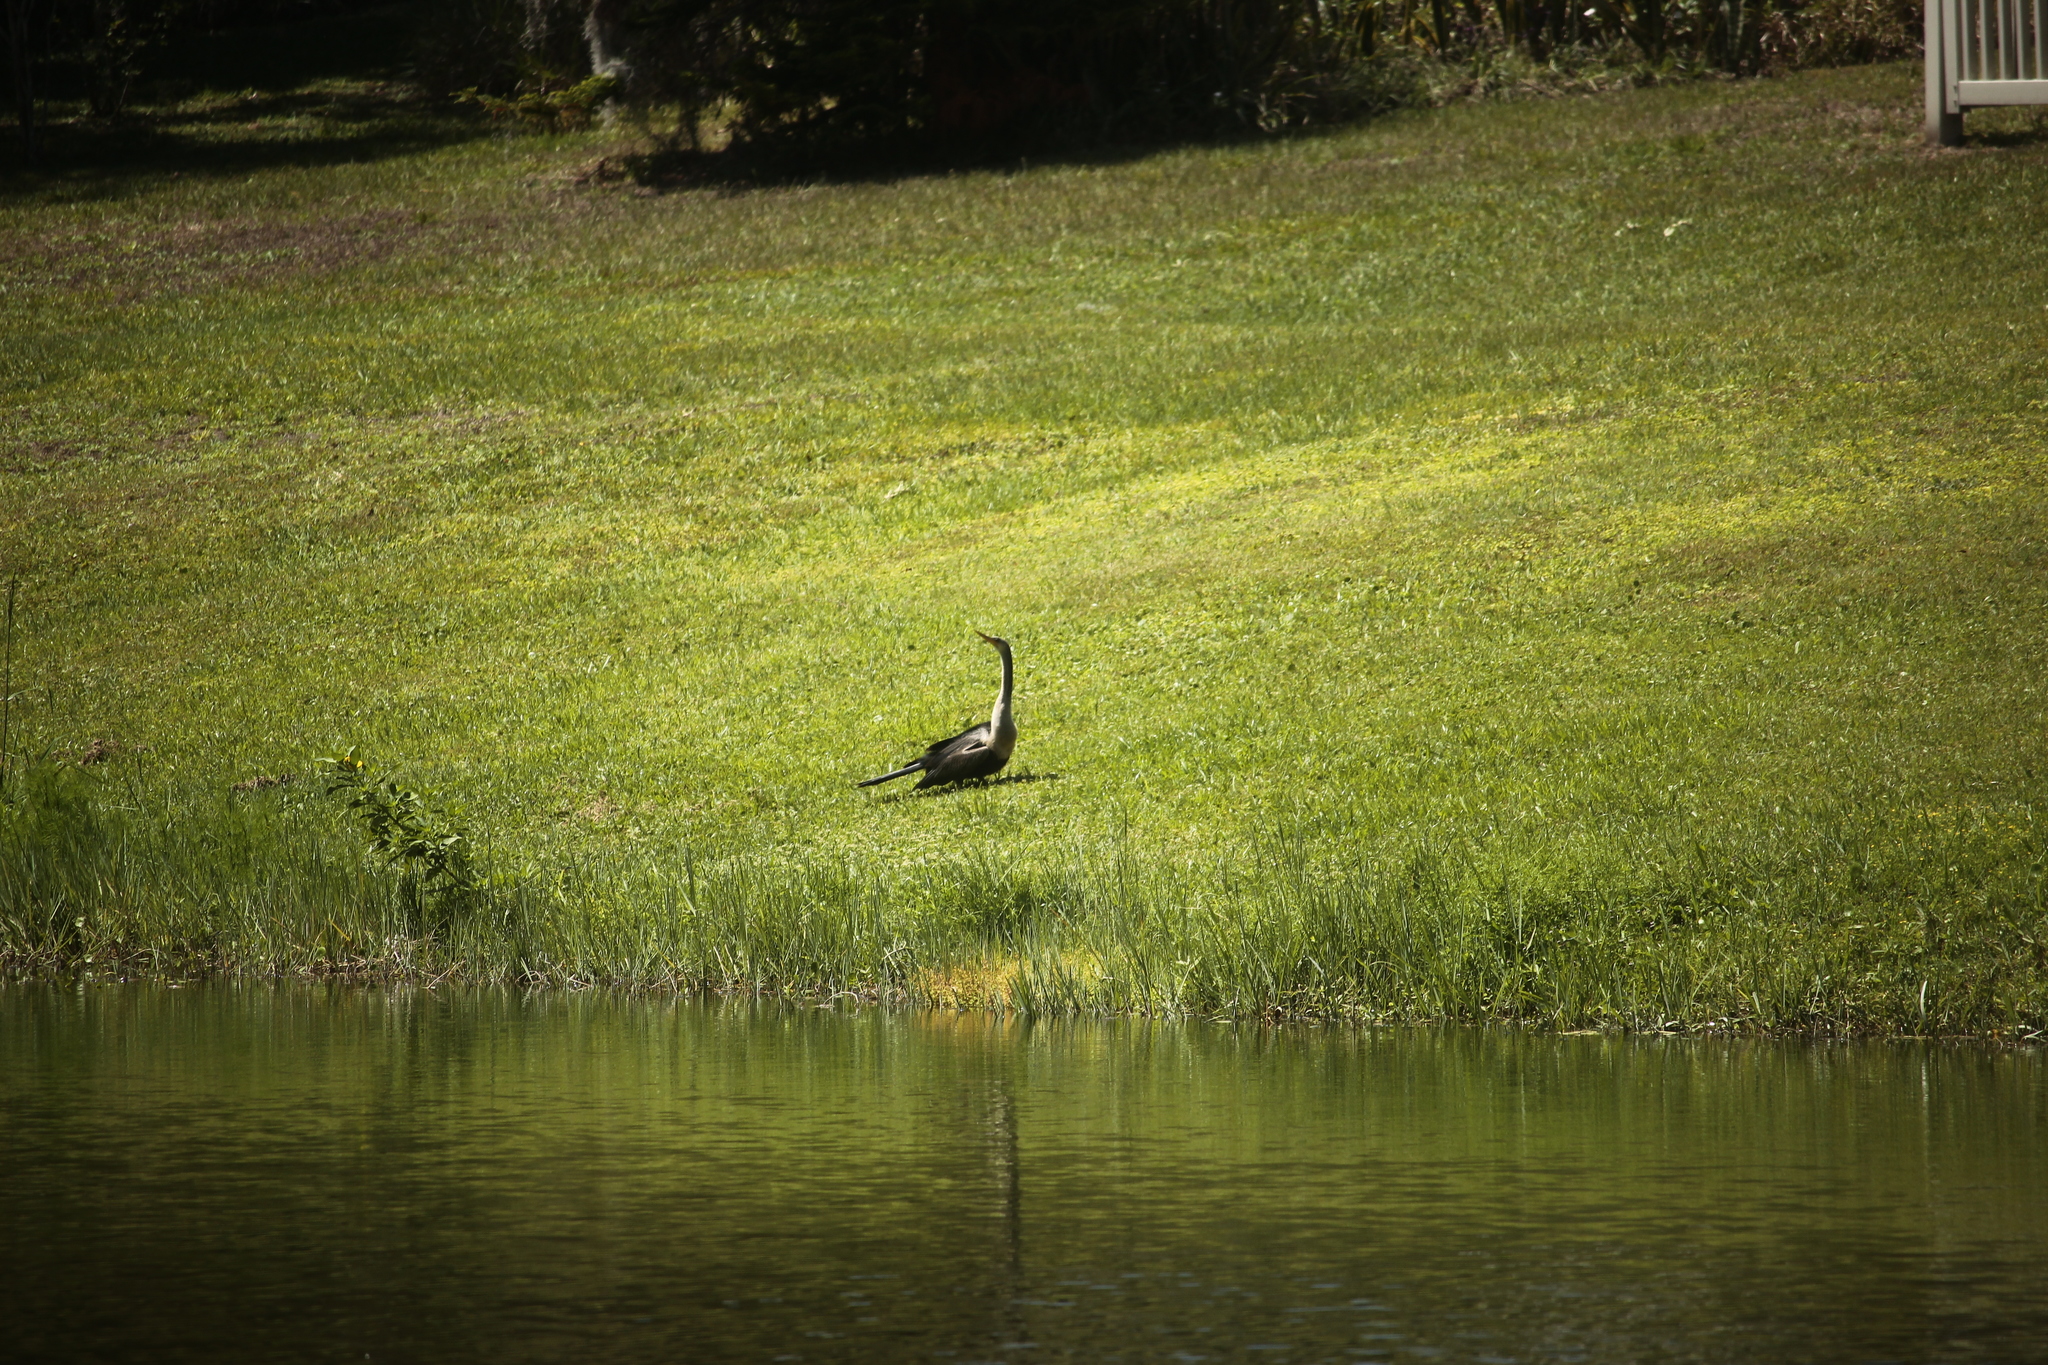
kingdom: Animalia
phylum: Chordata
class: Aves
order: Suliformes
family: Anhingidae
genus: Anhinga
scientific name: Anhinga anhinga
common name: Anhinga
